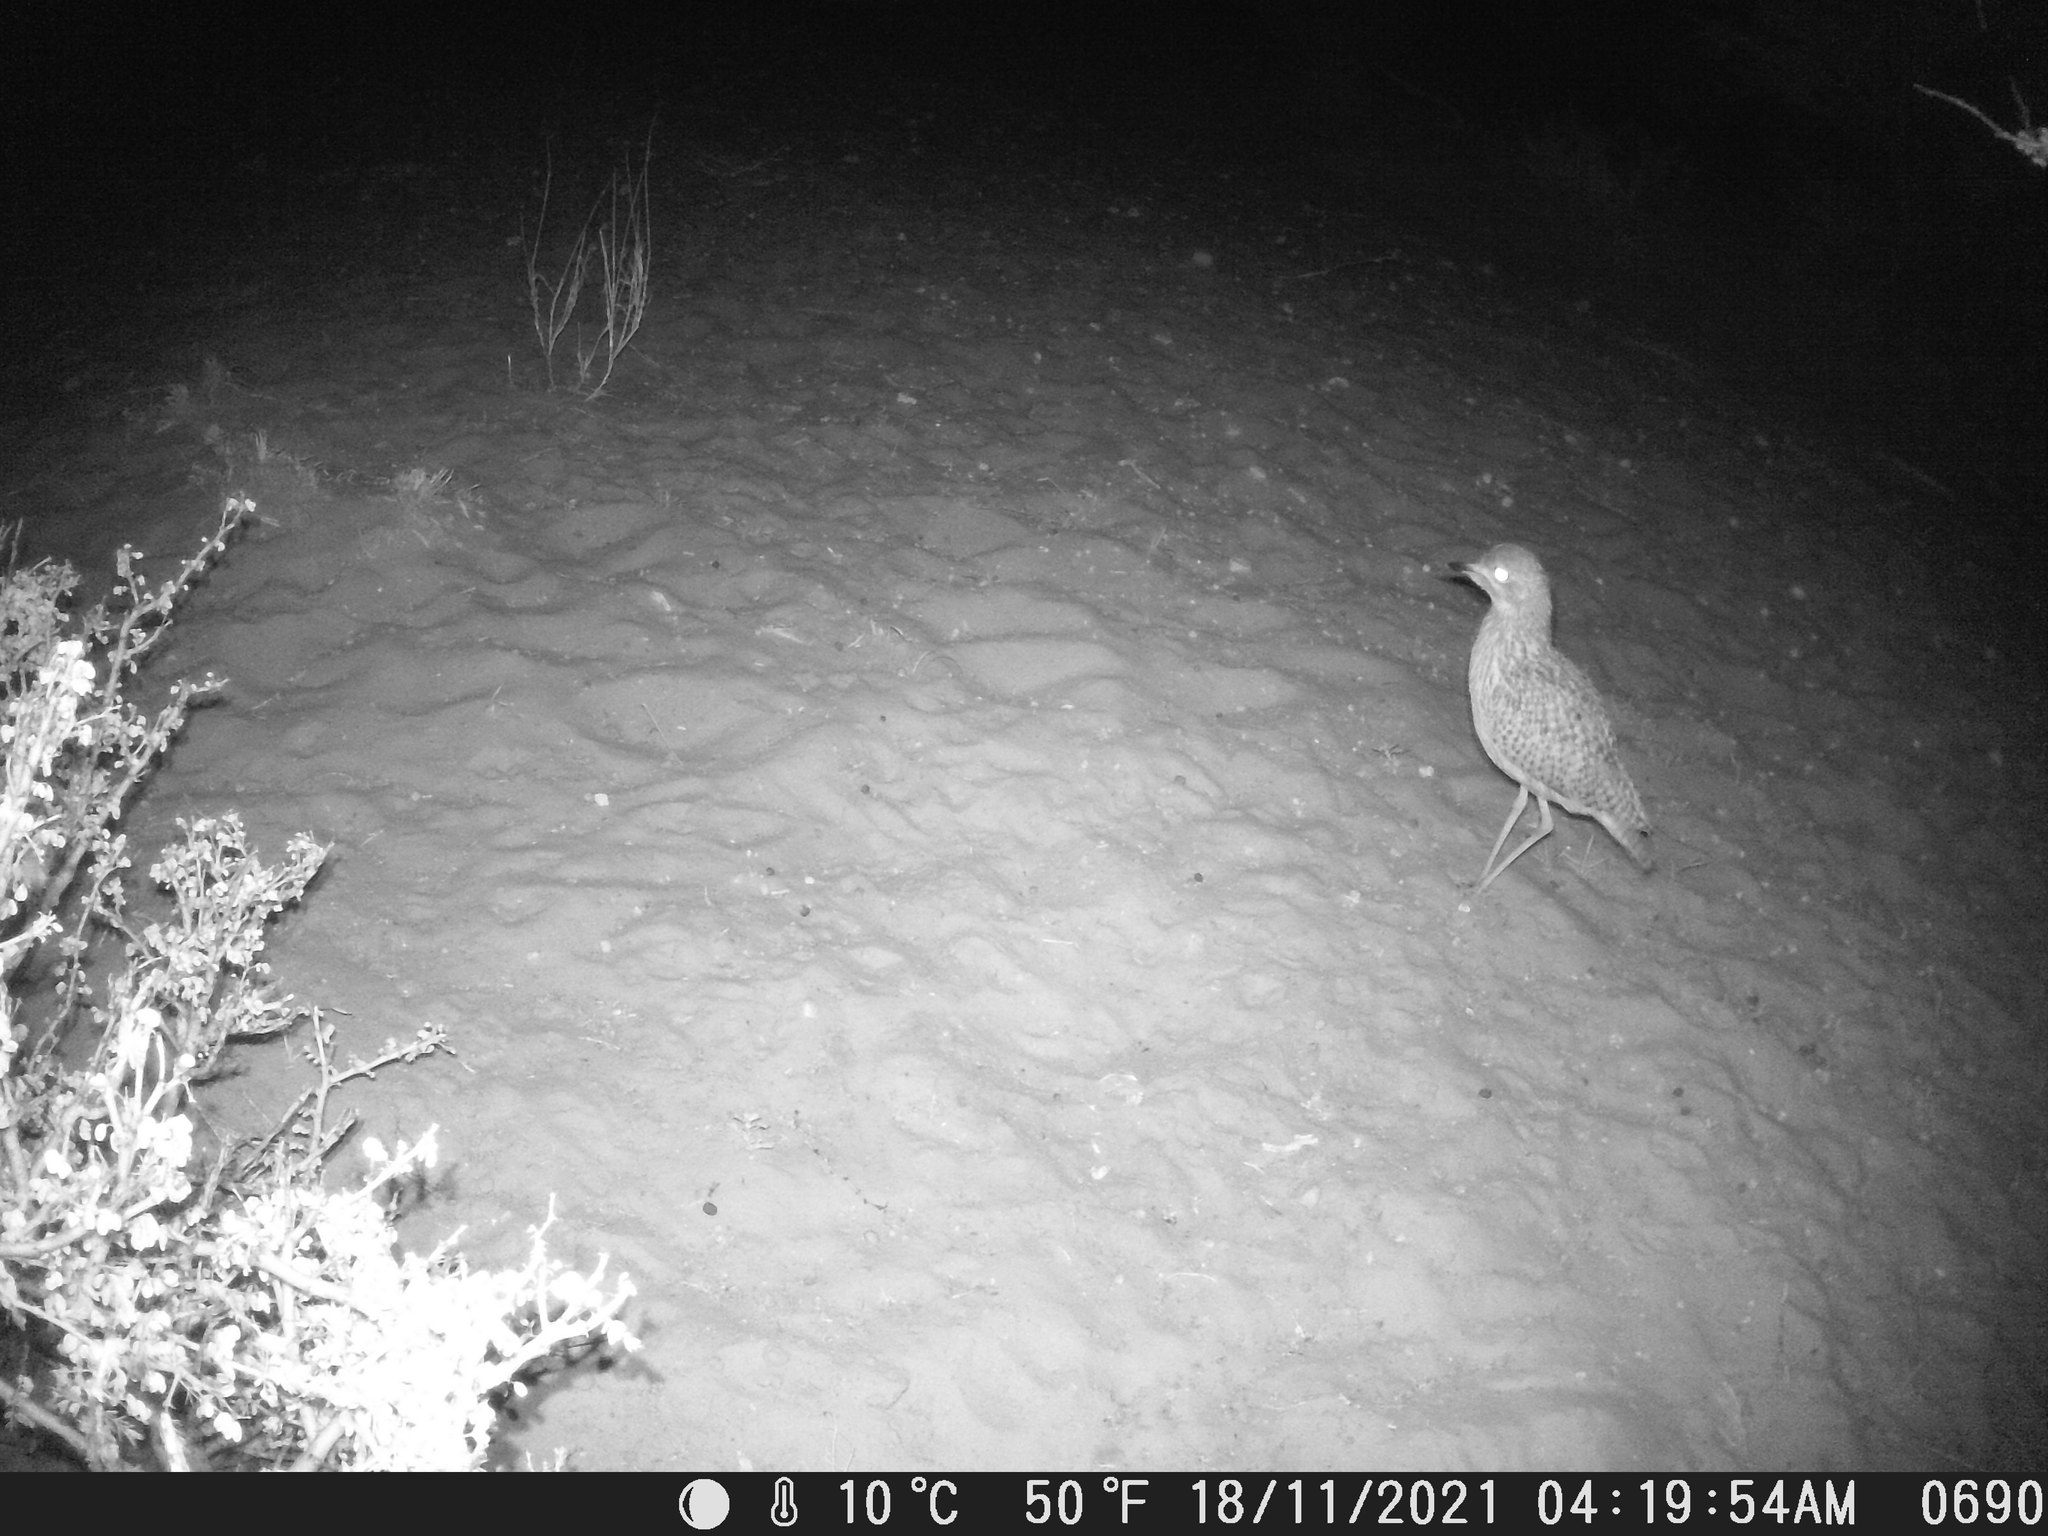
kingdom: Animalia
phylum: Chordata
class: Aves
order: Charadriiformes
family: Burhinidae
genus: Burhinus
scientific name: Burhinus capensis
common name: Spotted thick-knee
